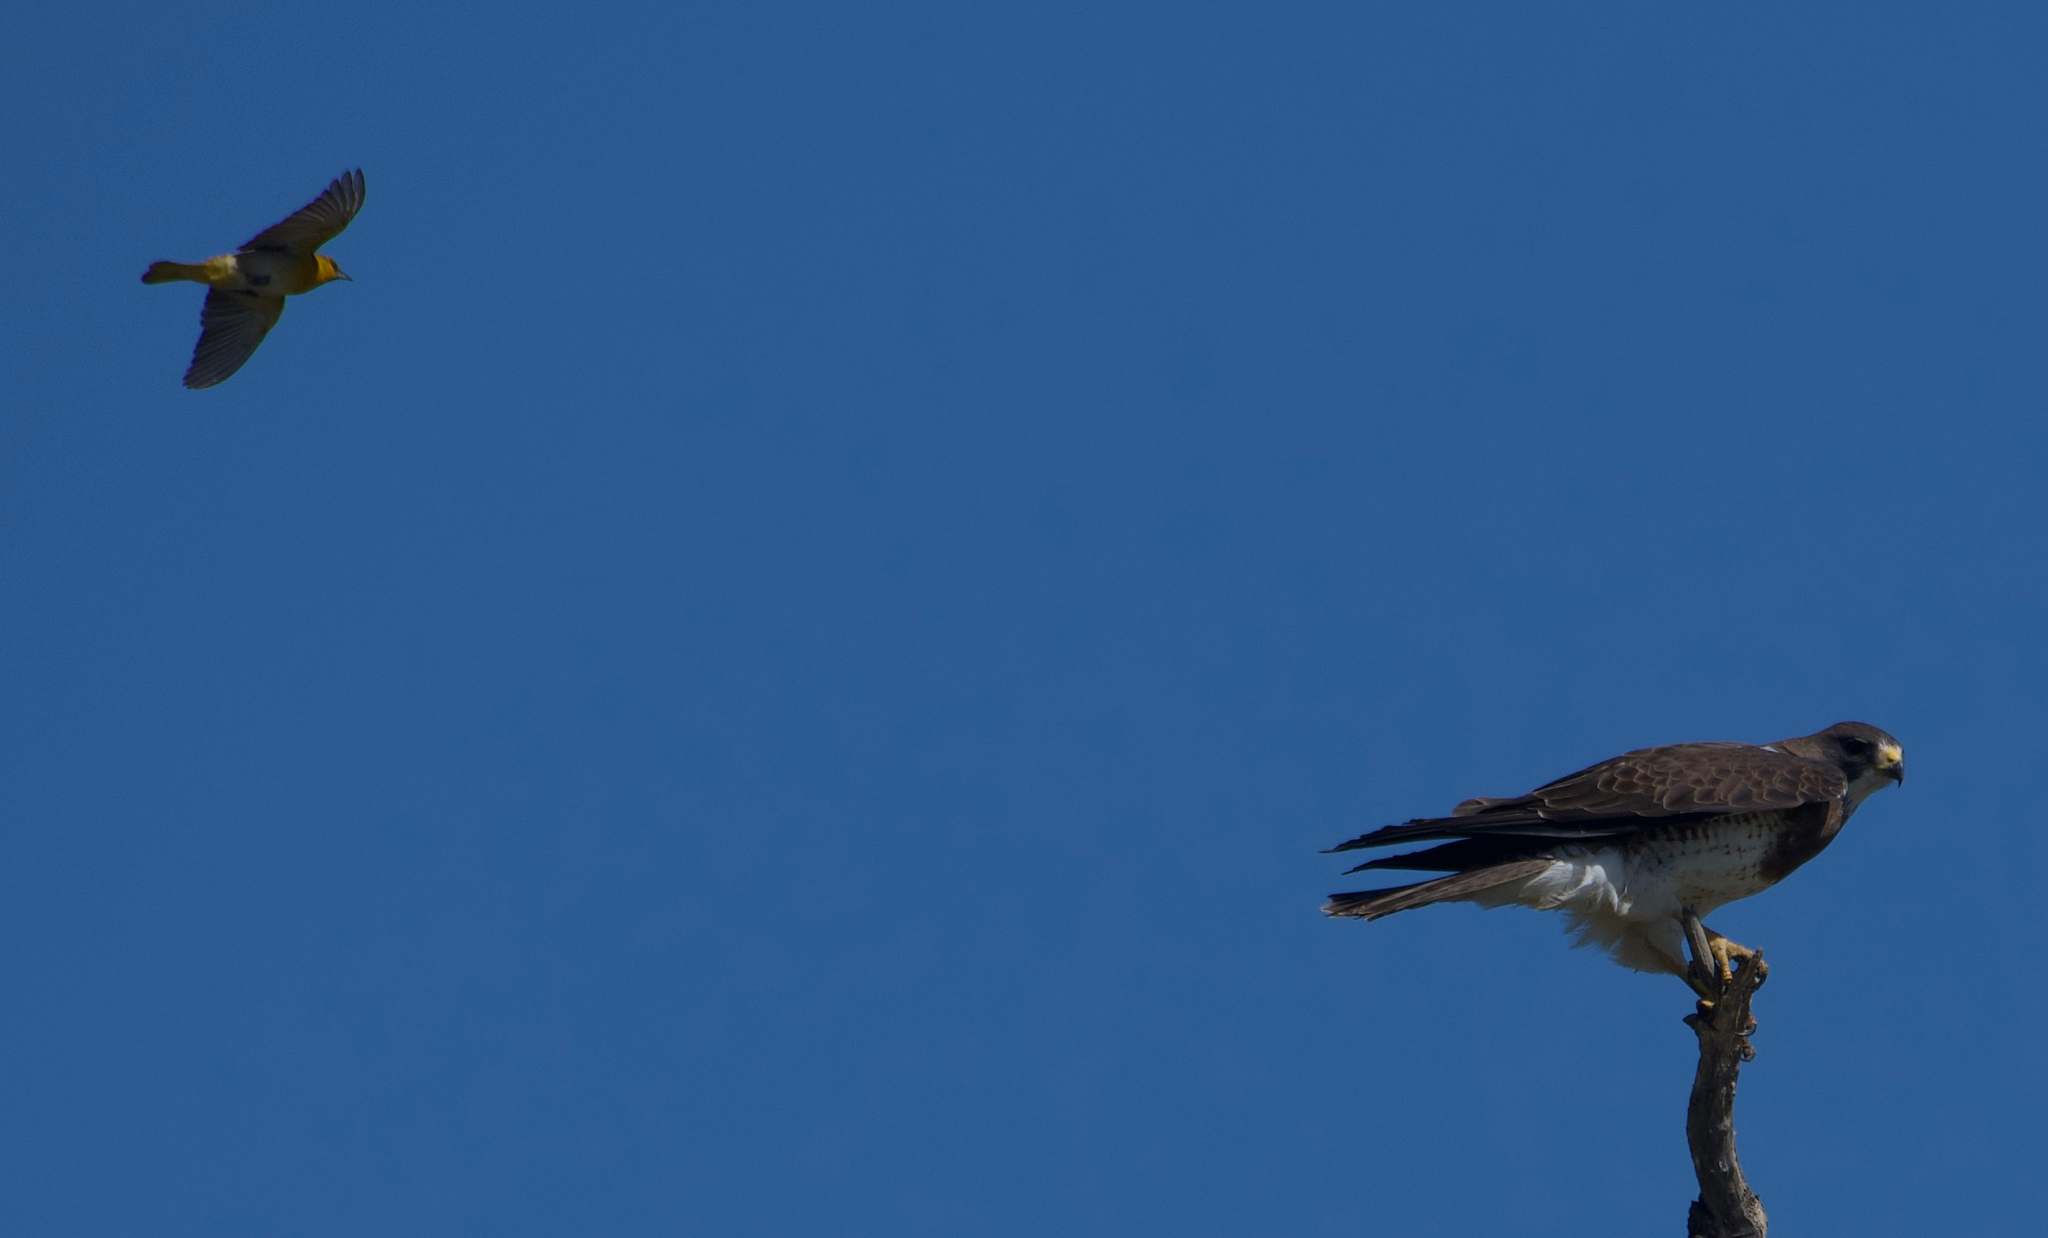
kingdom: Animalia
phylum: Chordata
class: Aves
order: Passeriformes
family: Icteridae
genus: Icterus
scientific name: Icterus bullockii
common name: Bullock's oriole
